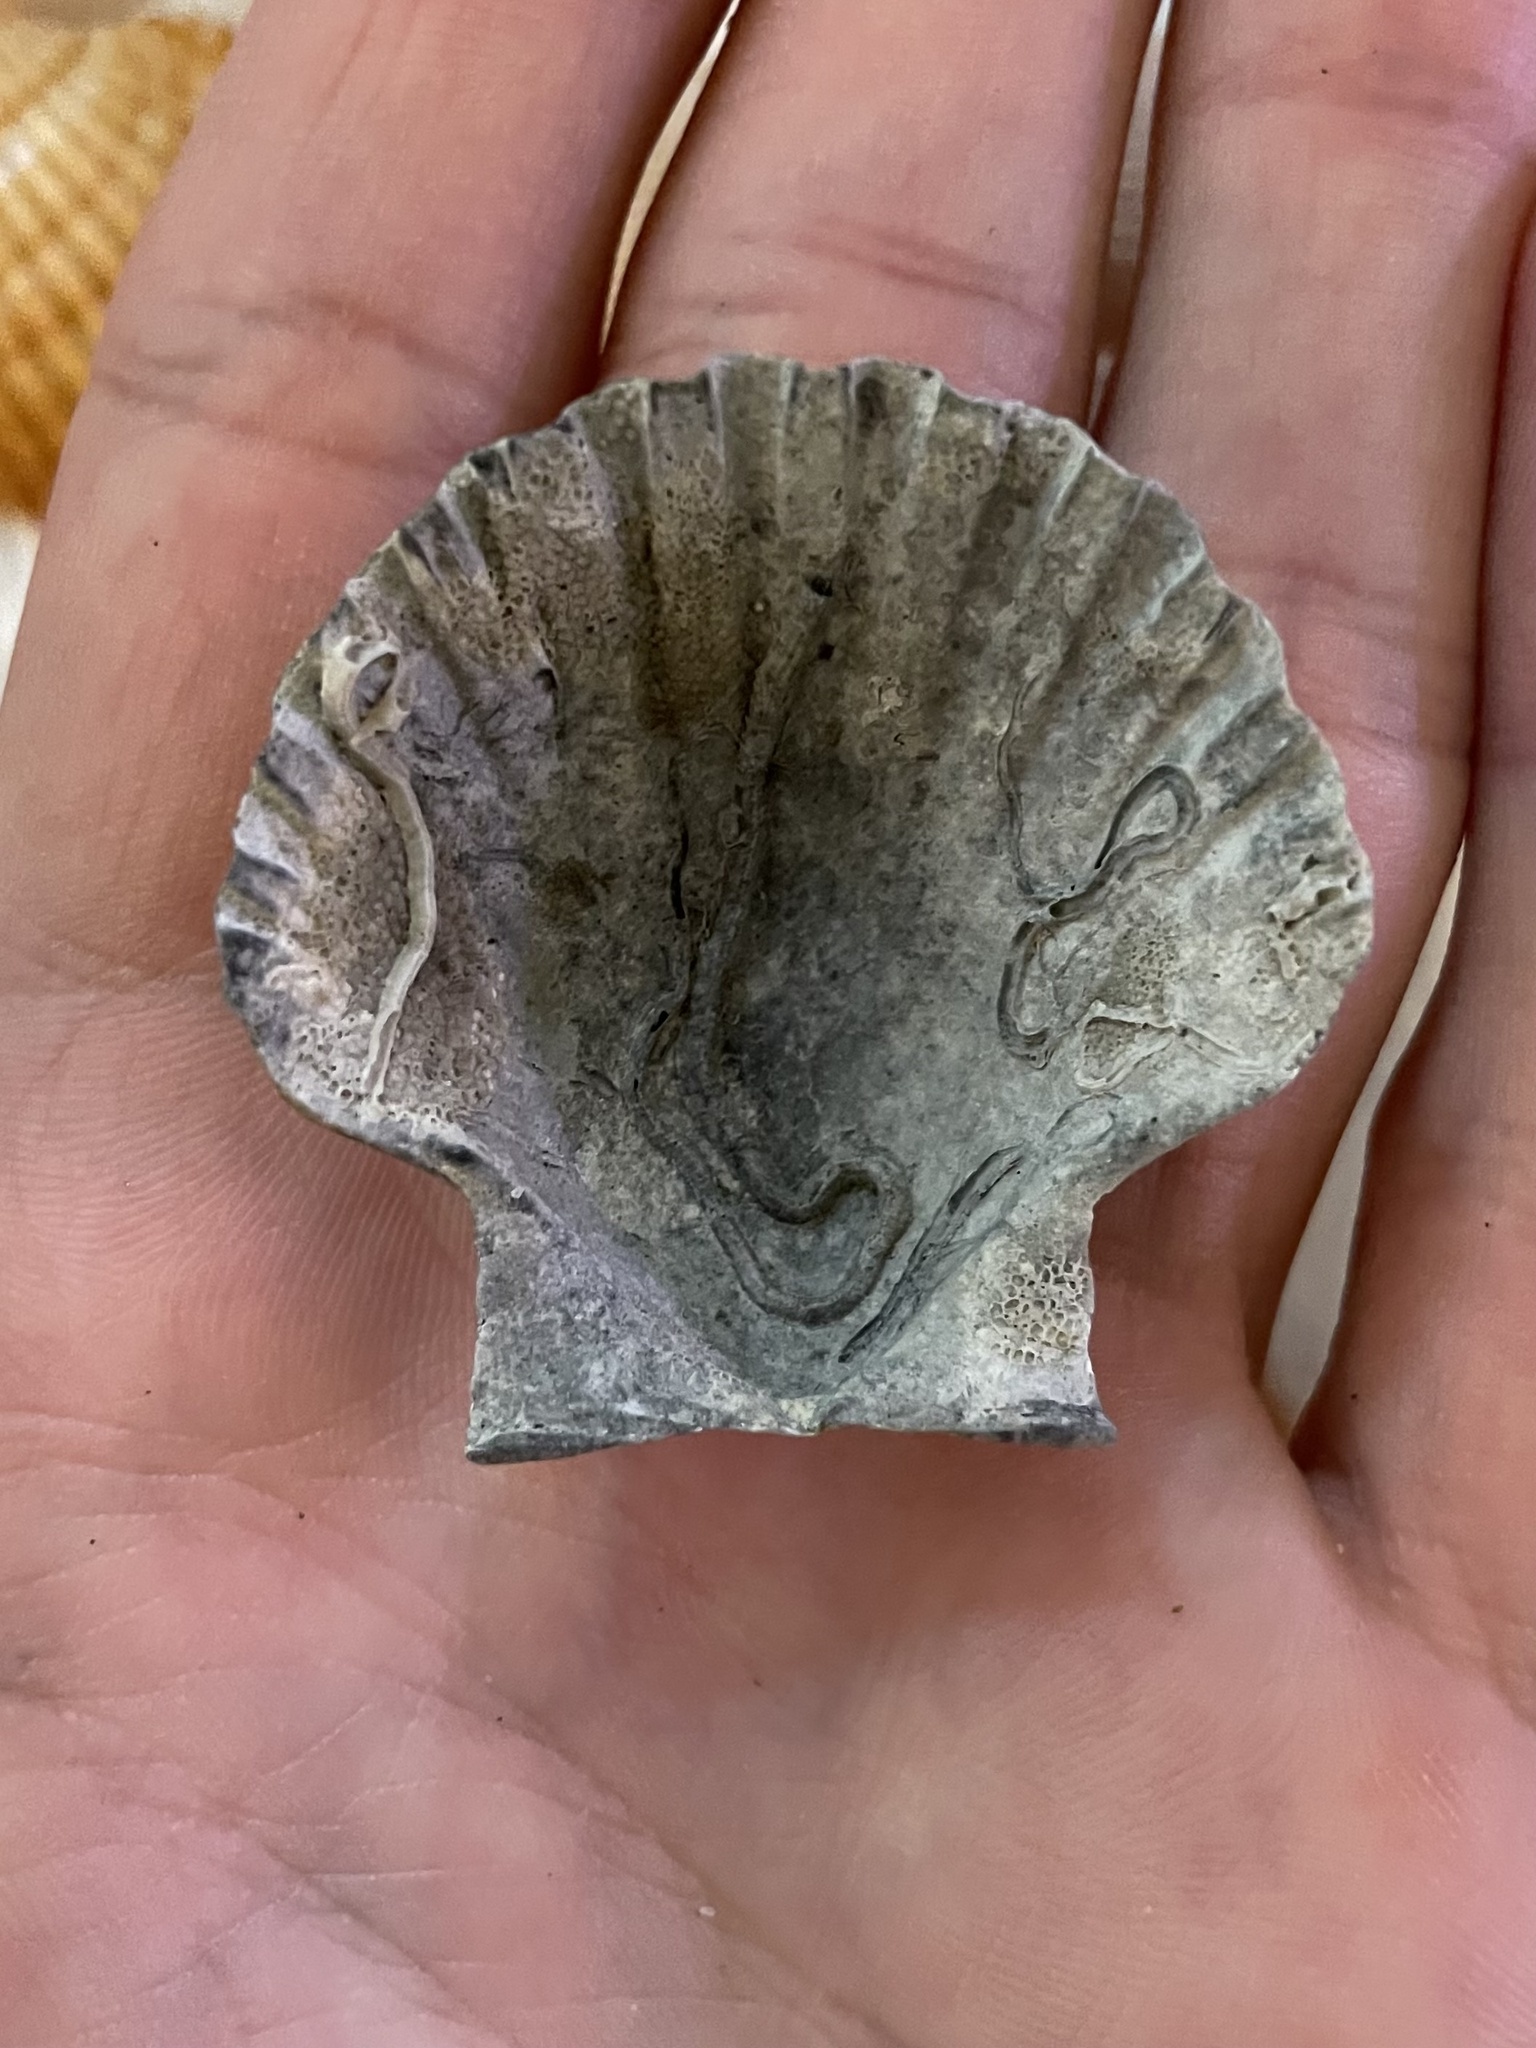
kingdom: Animalia
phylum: Mollusca
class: Bivalvia
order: Pectinida
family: Pectinidae
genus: Pecten
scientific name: Pecten jacobaeus
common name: St.james's scallop
